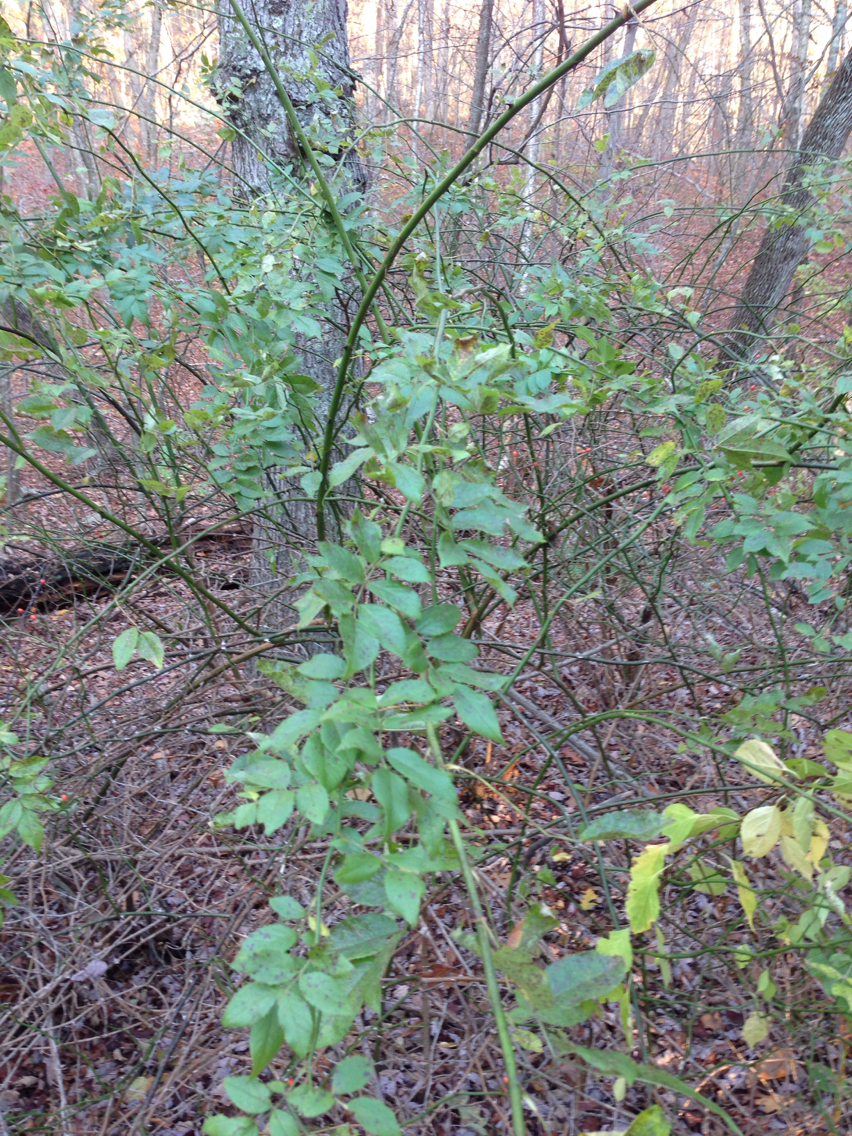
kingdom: Plantae
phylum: Tracheophyta
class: Magnoliopsida
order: Rosales
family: Rosaceae
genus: Rosa
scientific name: Rosa multiflora
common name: Multiflora rose
